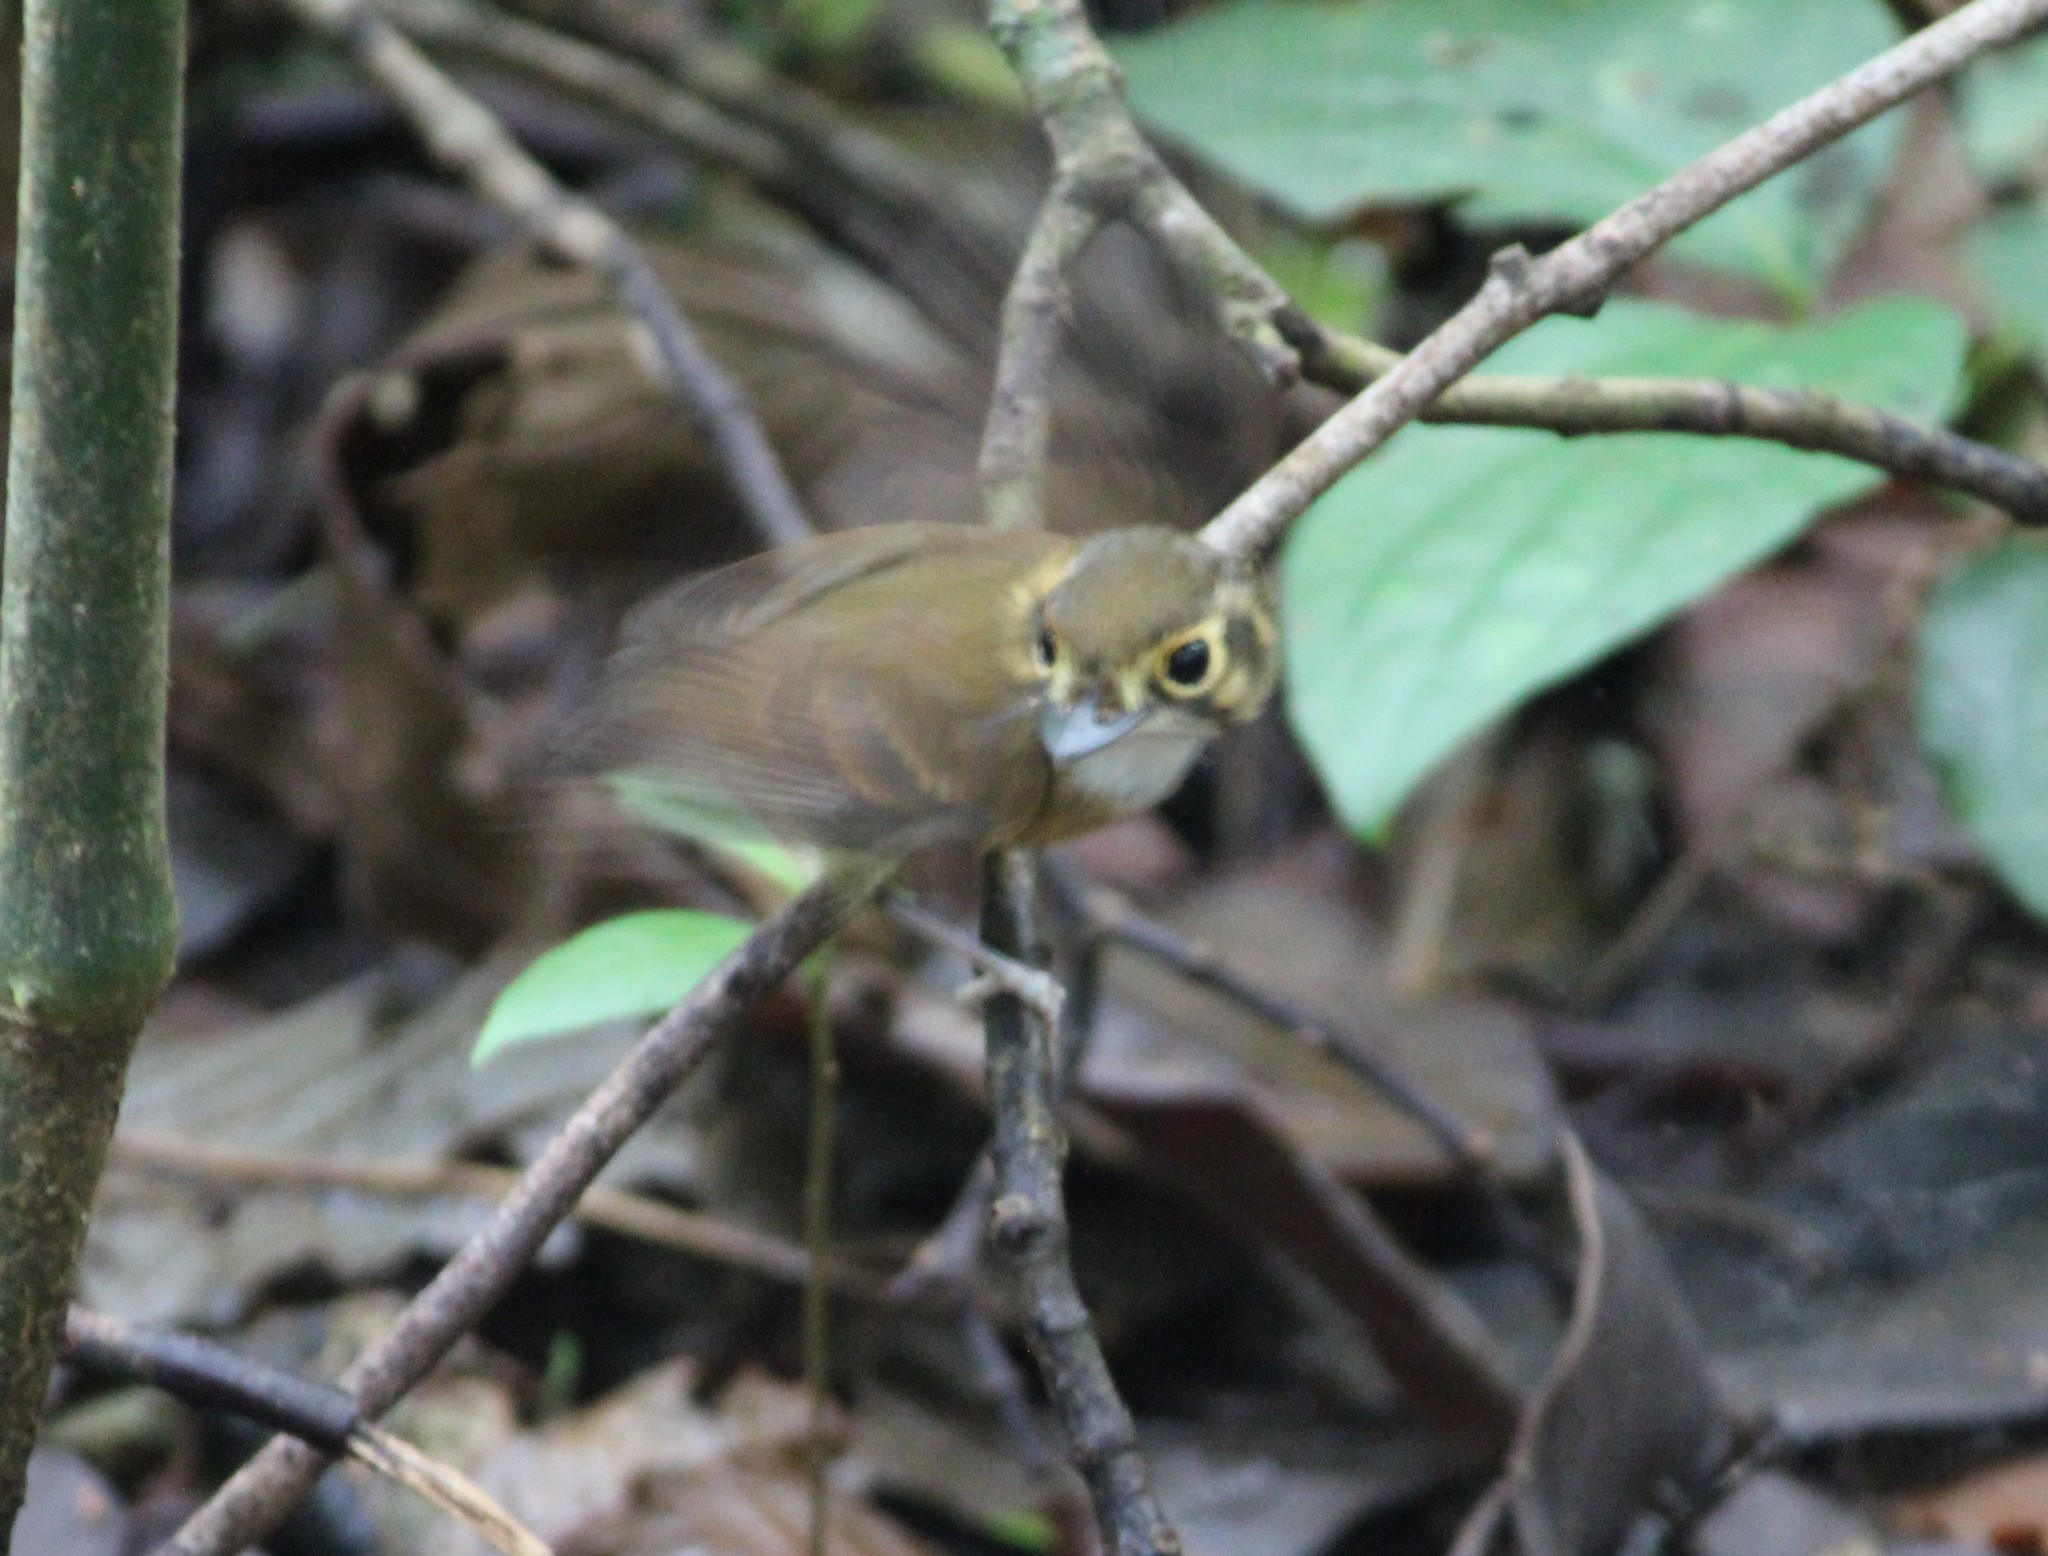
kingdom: Animalia
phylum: Chordata
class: Aves
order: Passeriformes
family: Tyrannidae
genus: Platyrinchus
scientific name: Platyrinchus mystaceus
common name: White-throated spadebill
